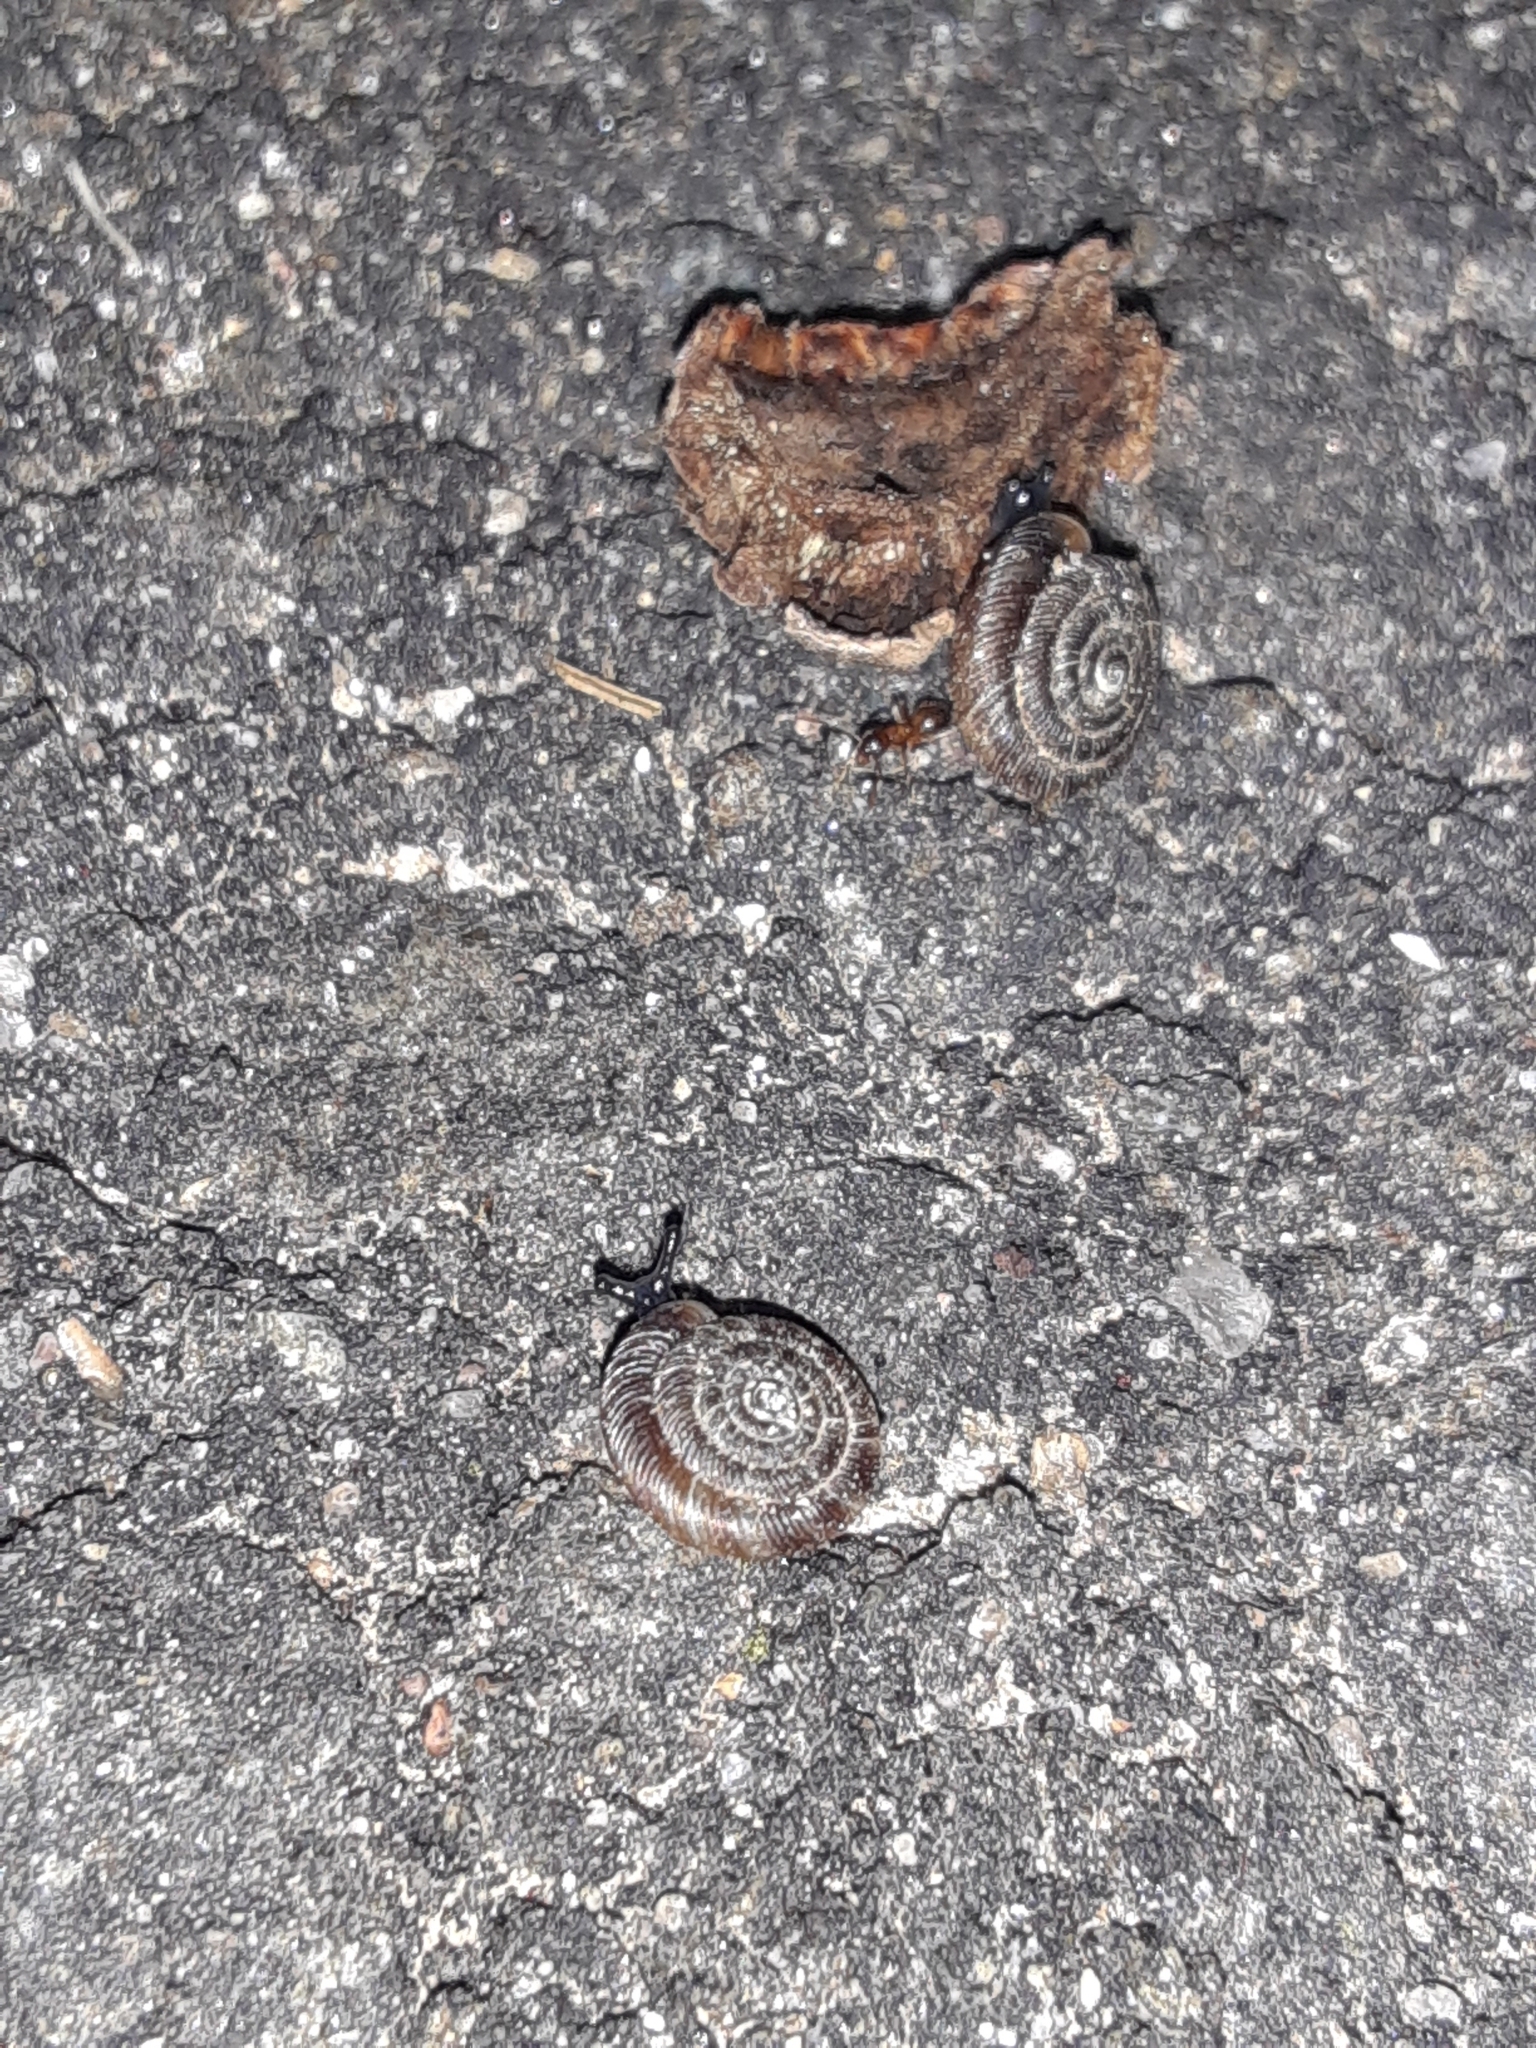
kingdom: Animalia
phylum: Mollusca
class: Gastropoda
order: Stylommatophora
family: Discidae
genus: Discus
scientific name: Discus rotundatus
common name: Rounded snail
